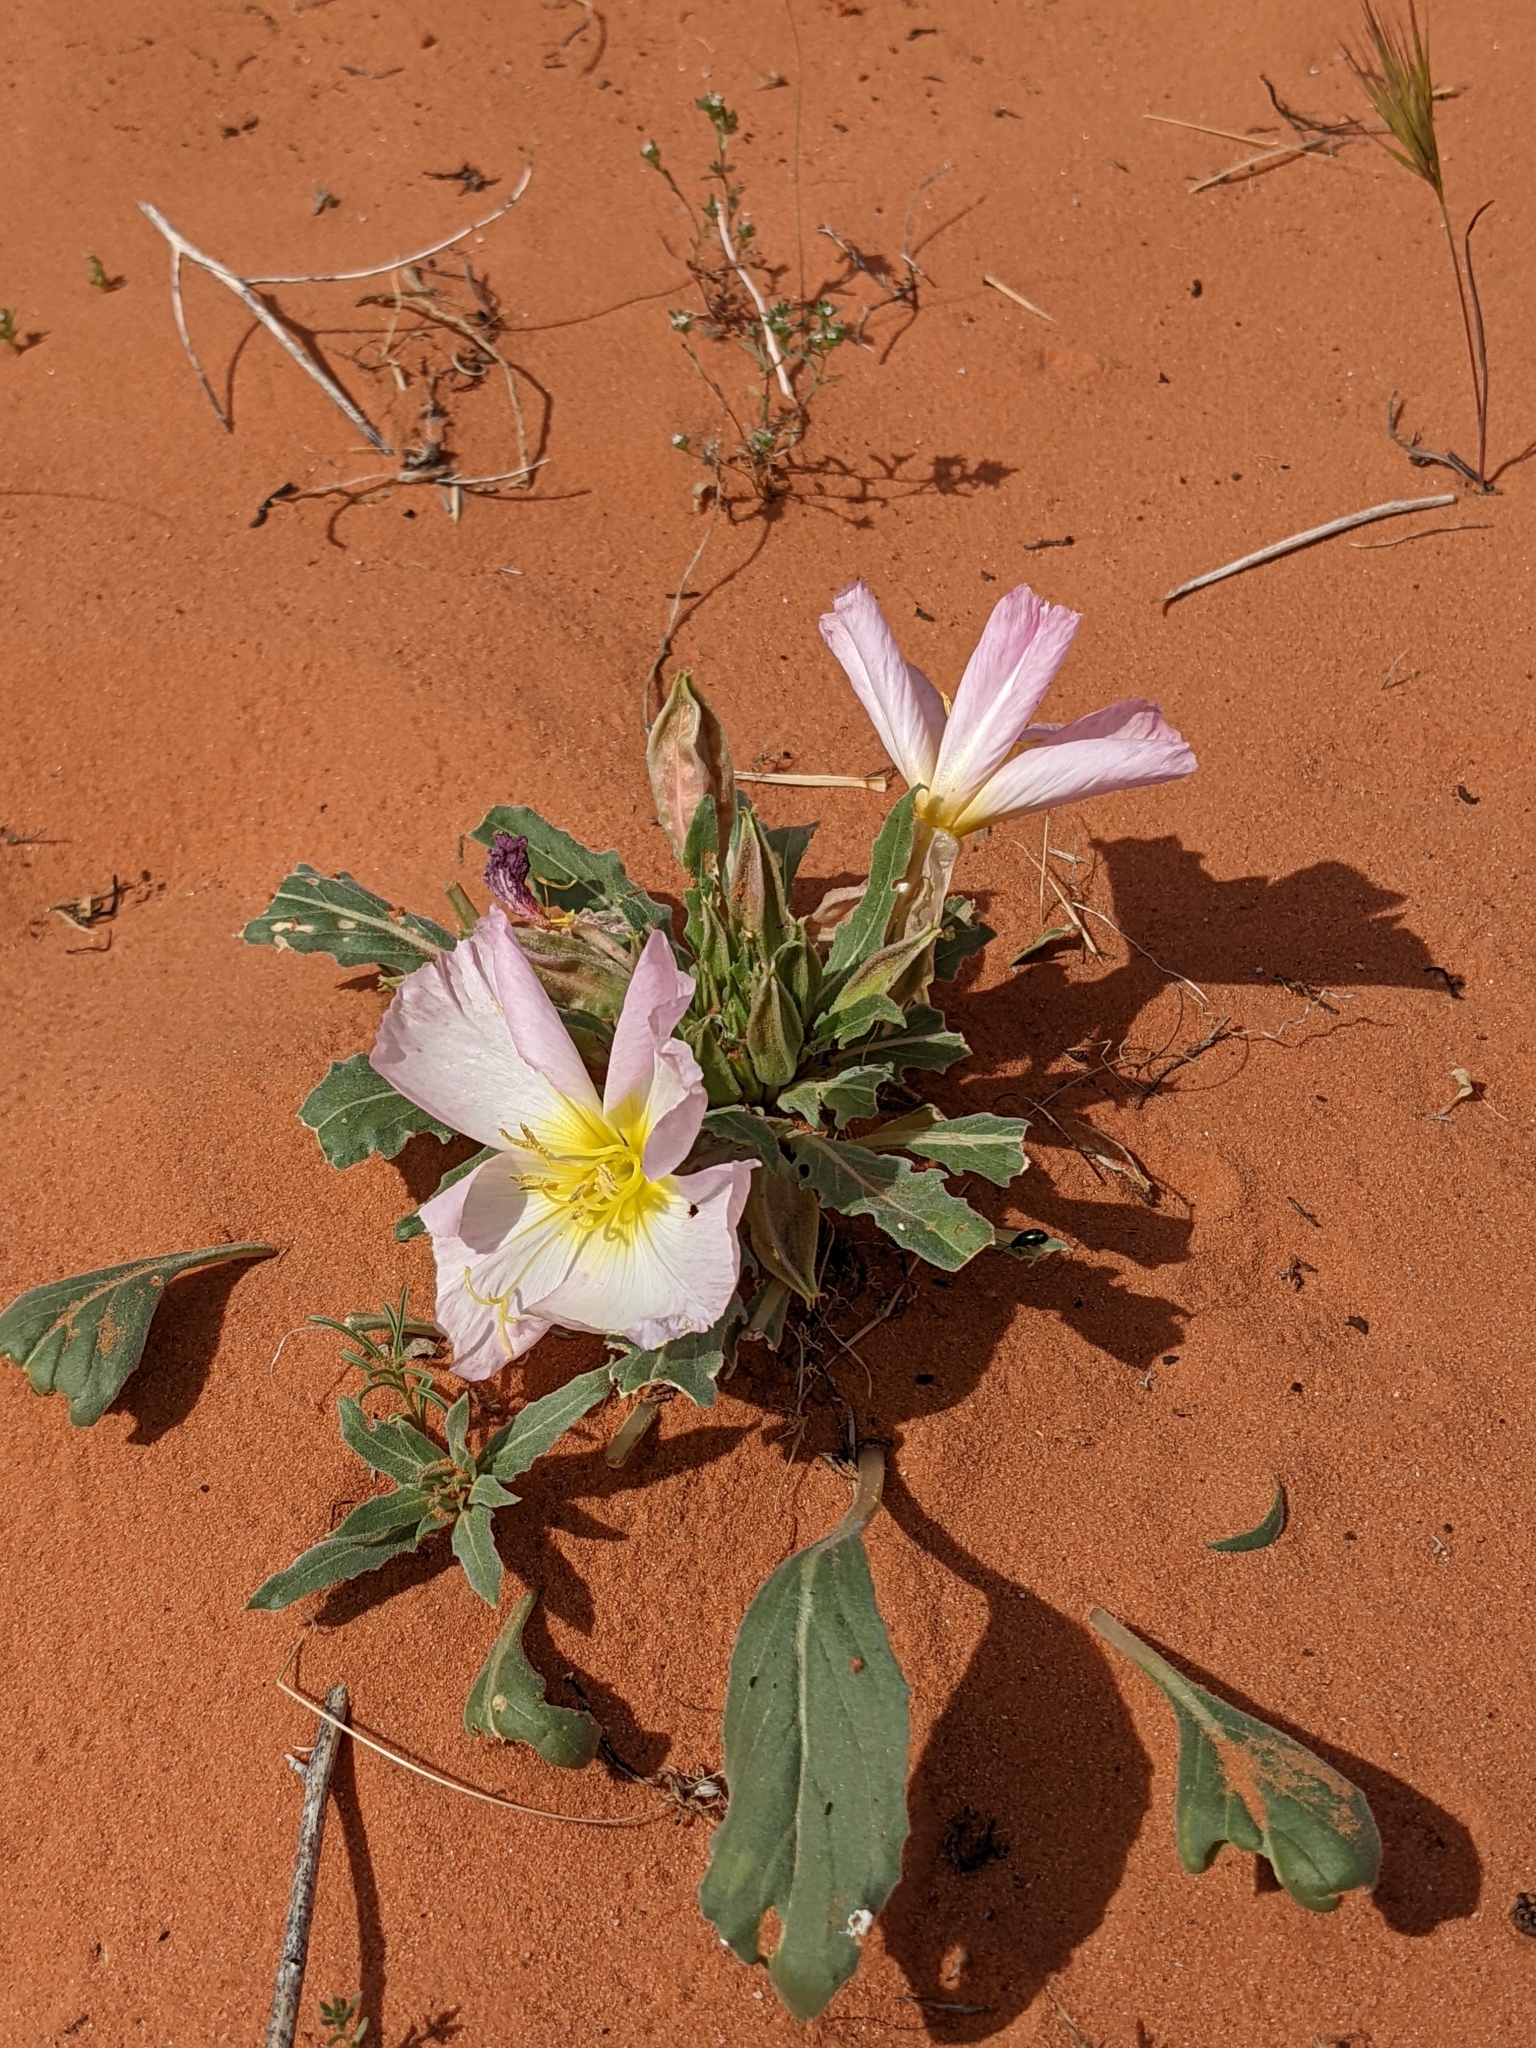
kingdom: Plantae
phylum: Tracheophyta
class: Magnoliopsida
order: Myrtales
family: Onagraceae
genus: Oenothera
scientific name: Oenothera deltoides
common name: Basket evening-primrose
